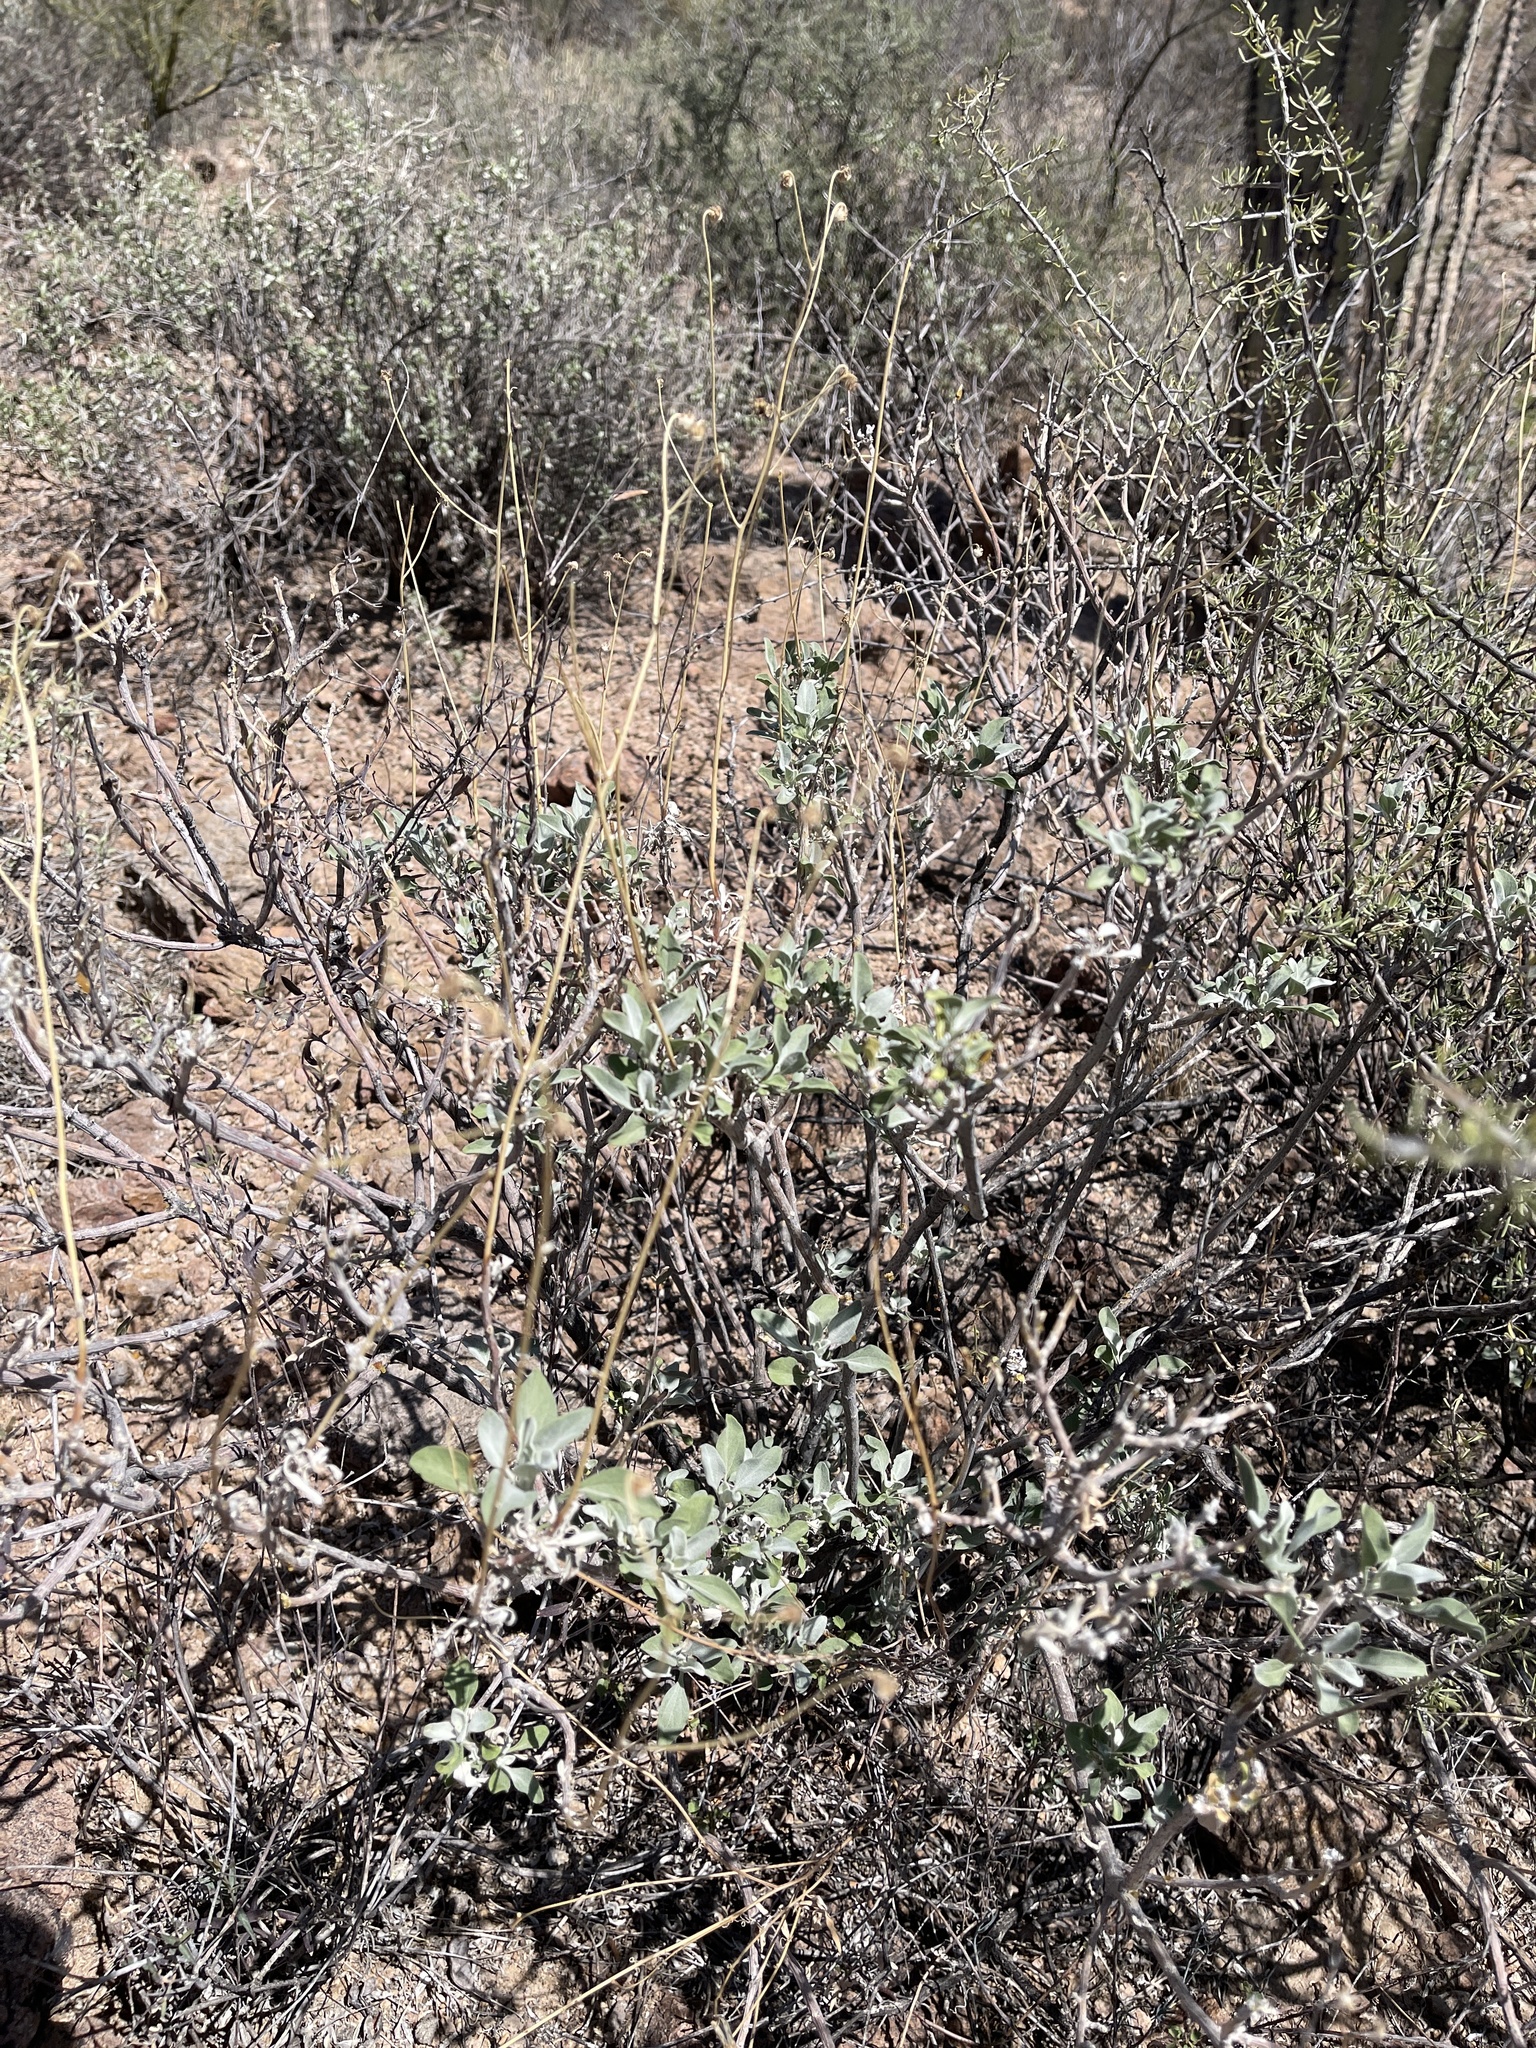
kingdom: Plantae
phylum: Tracheophyta
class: Magnoliopsida
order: Asterales
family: Asteraceae
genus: Encelia
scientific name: Encelia farinosa
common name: Brittlebush
